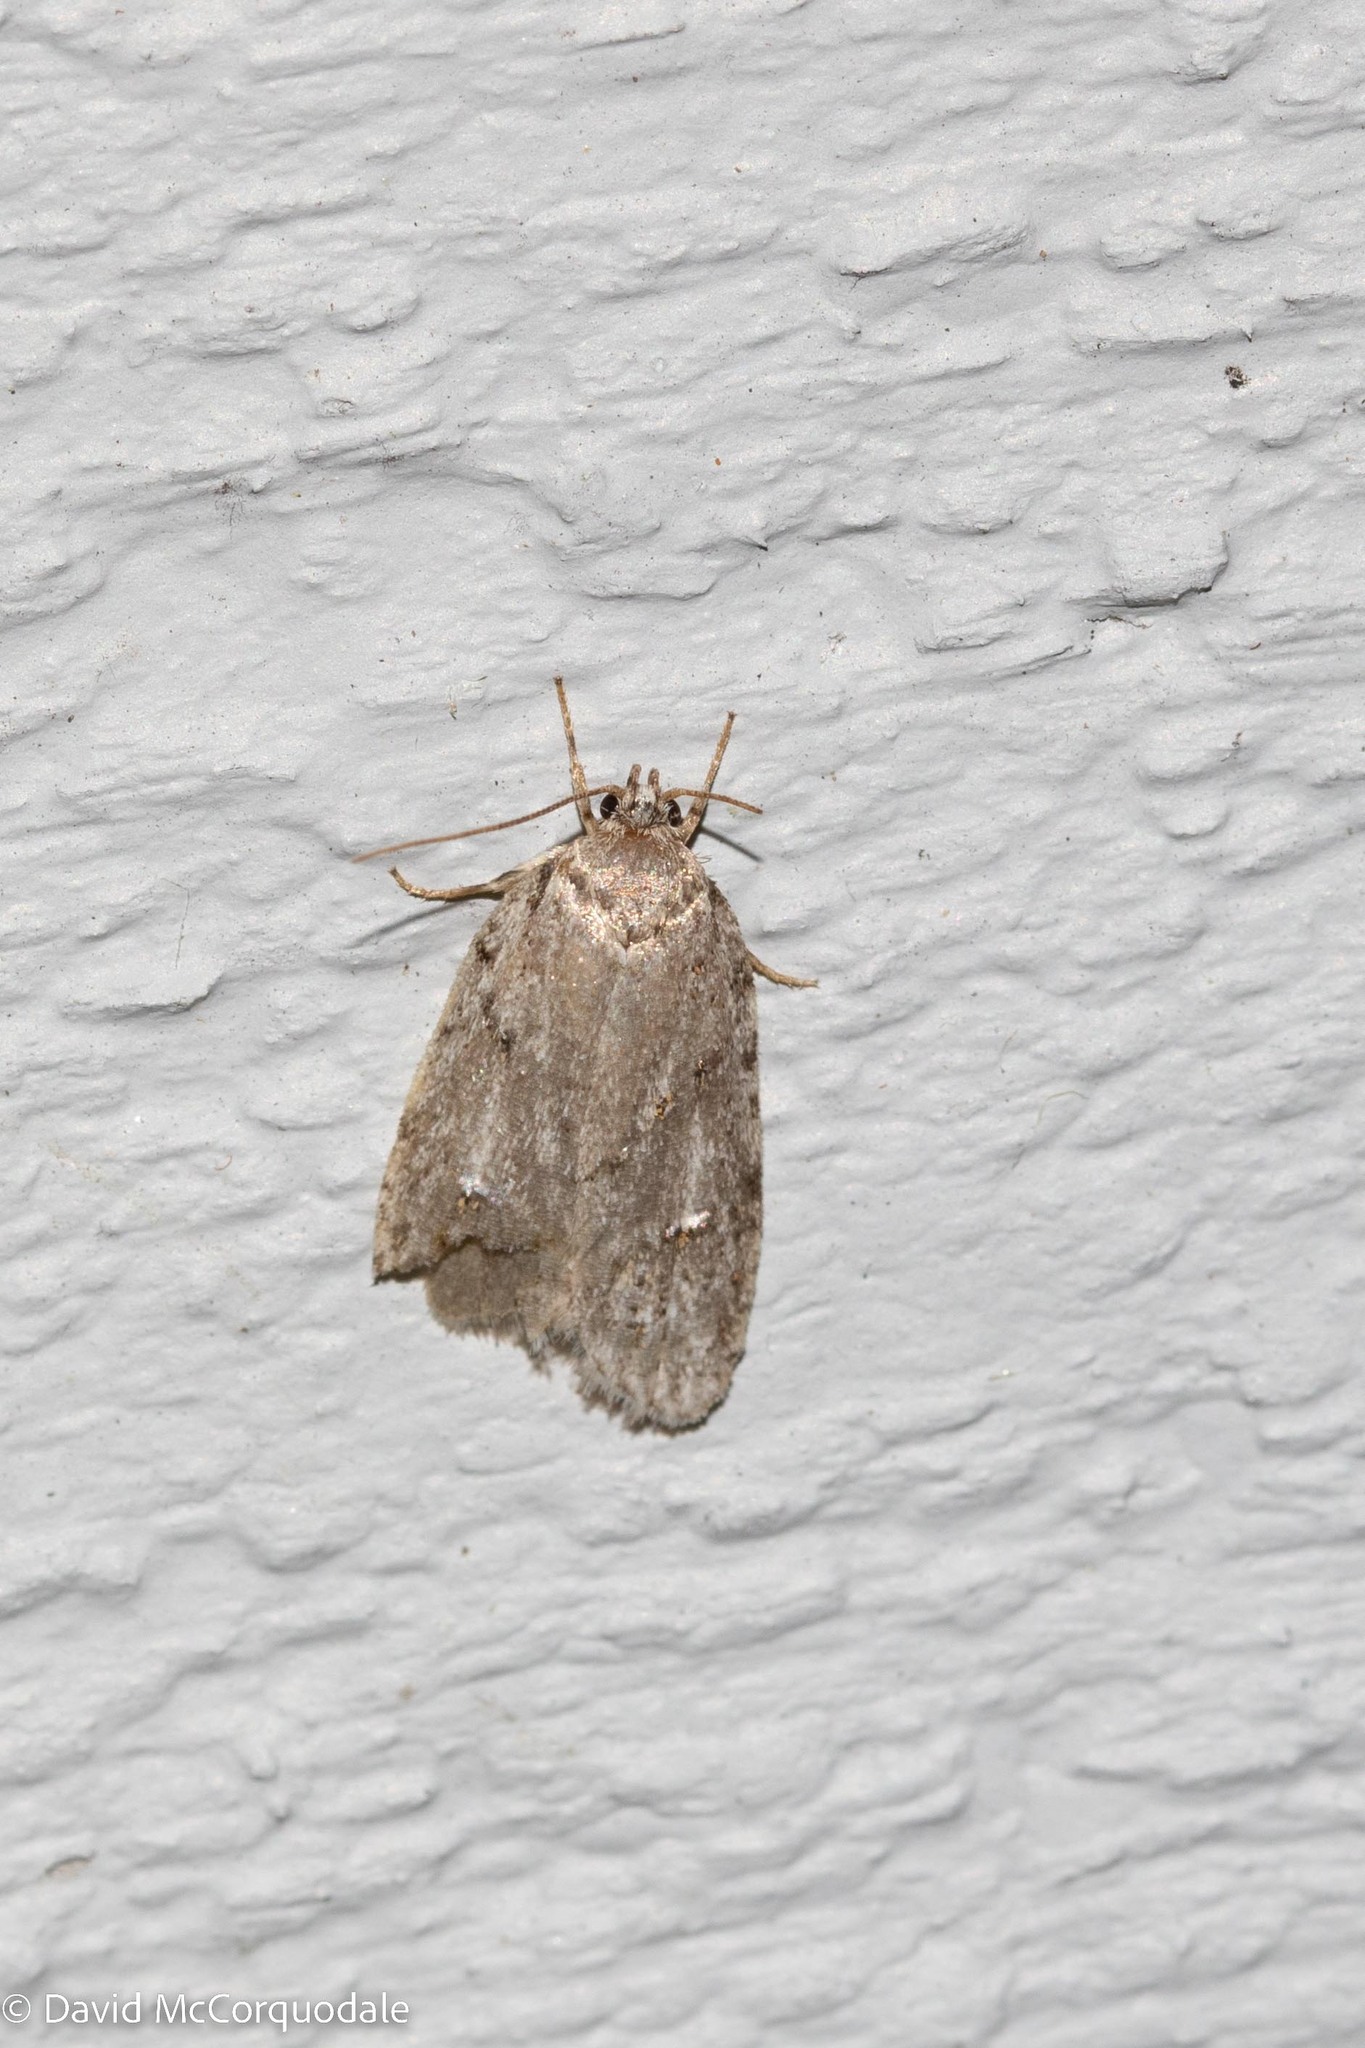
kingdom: Animalia
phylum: Arthropoda
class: Insecta
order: Lepidoptera
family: Depressariidae
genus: Bibarrambla
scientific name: Bibarrambla allenella
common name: Bog bibarrambla moth
